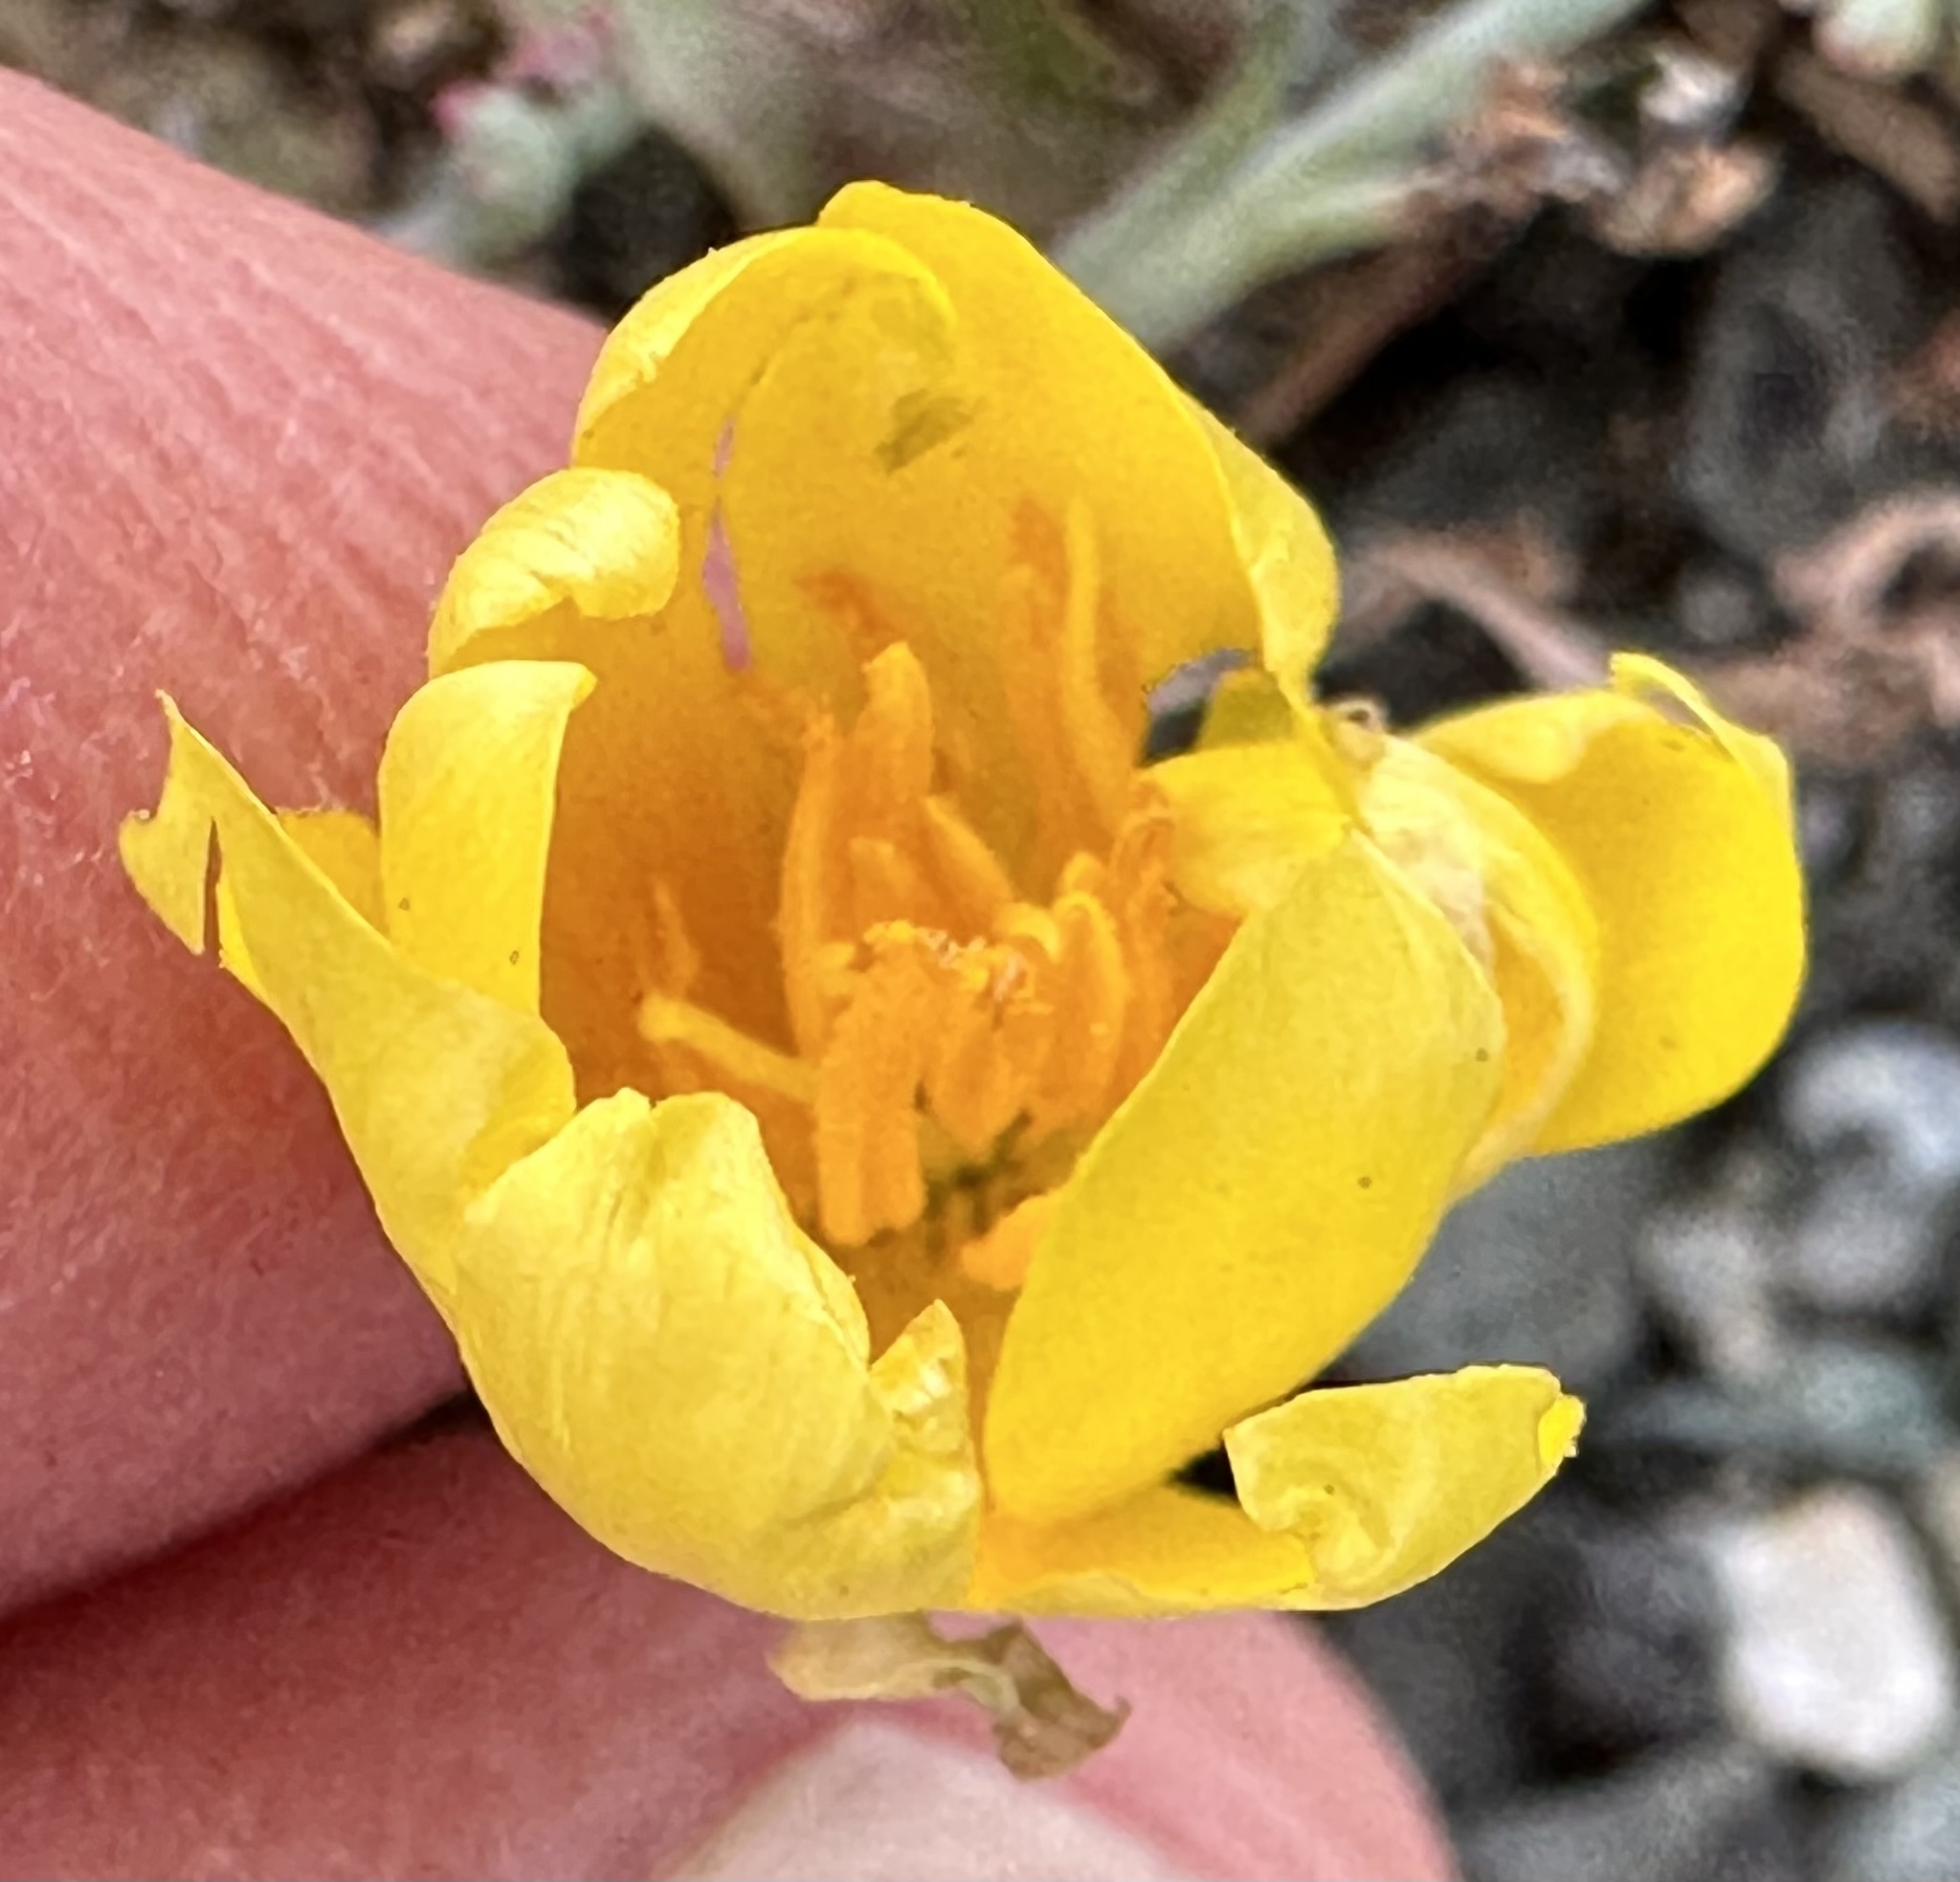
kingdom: Plantae
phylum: Tracheophyta
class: Magnoliopsida
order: Ranunculales
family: Papaveraceae
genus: Eschscholzia
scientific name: Eschscholzia californica
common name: California poppy
